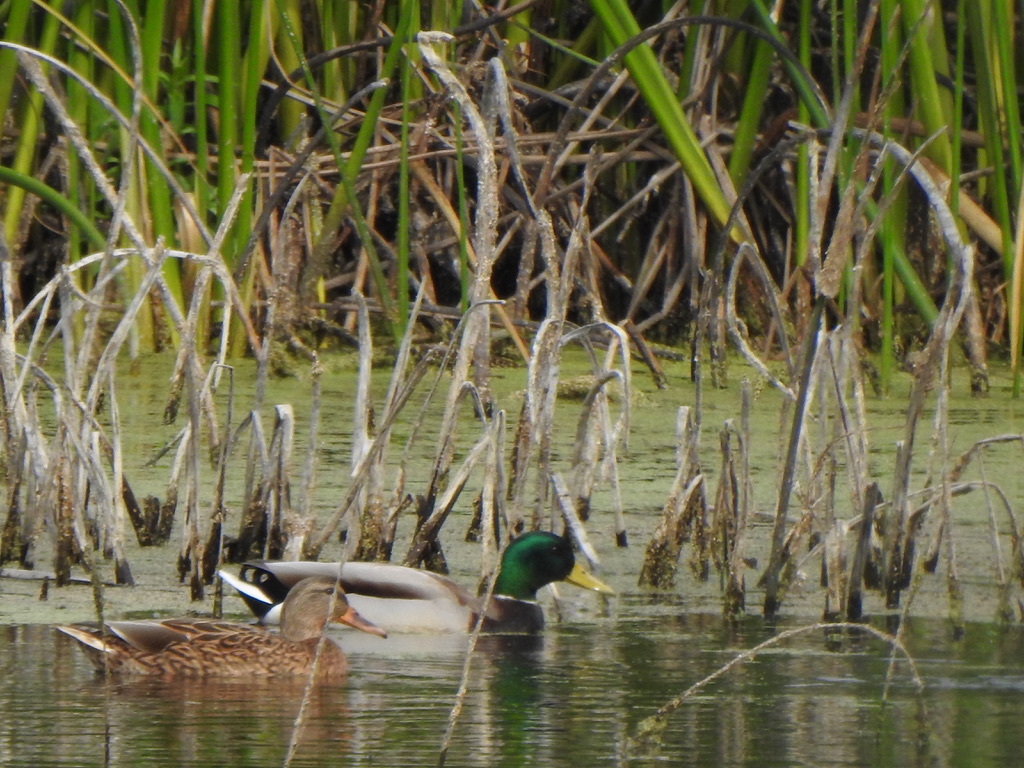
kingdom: Animalia
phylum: Chordata
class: Aves
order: Anseriformes
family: Anatidae
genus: Anas
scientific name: Anas platyrhynchos
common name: Mallard
